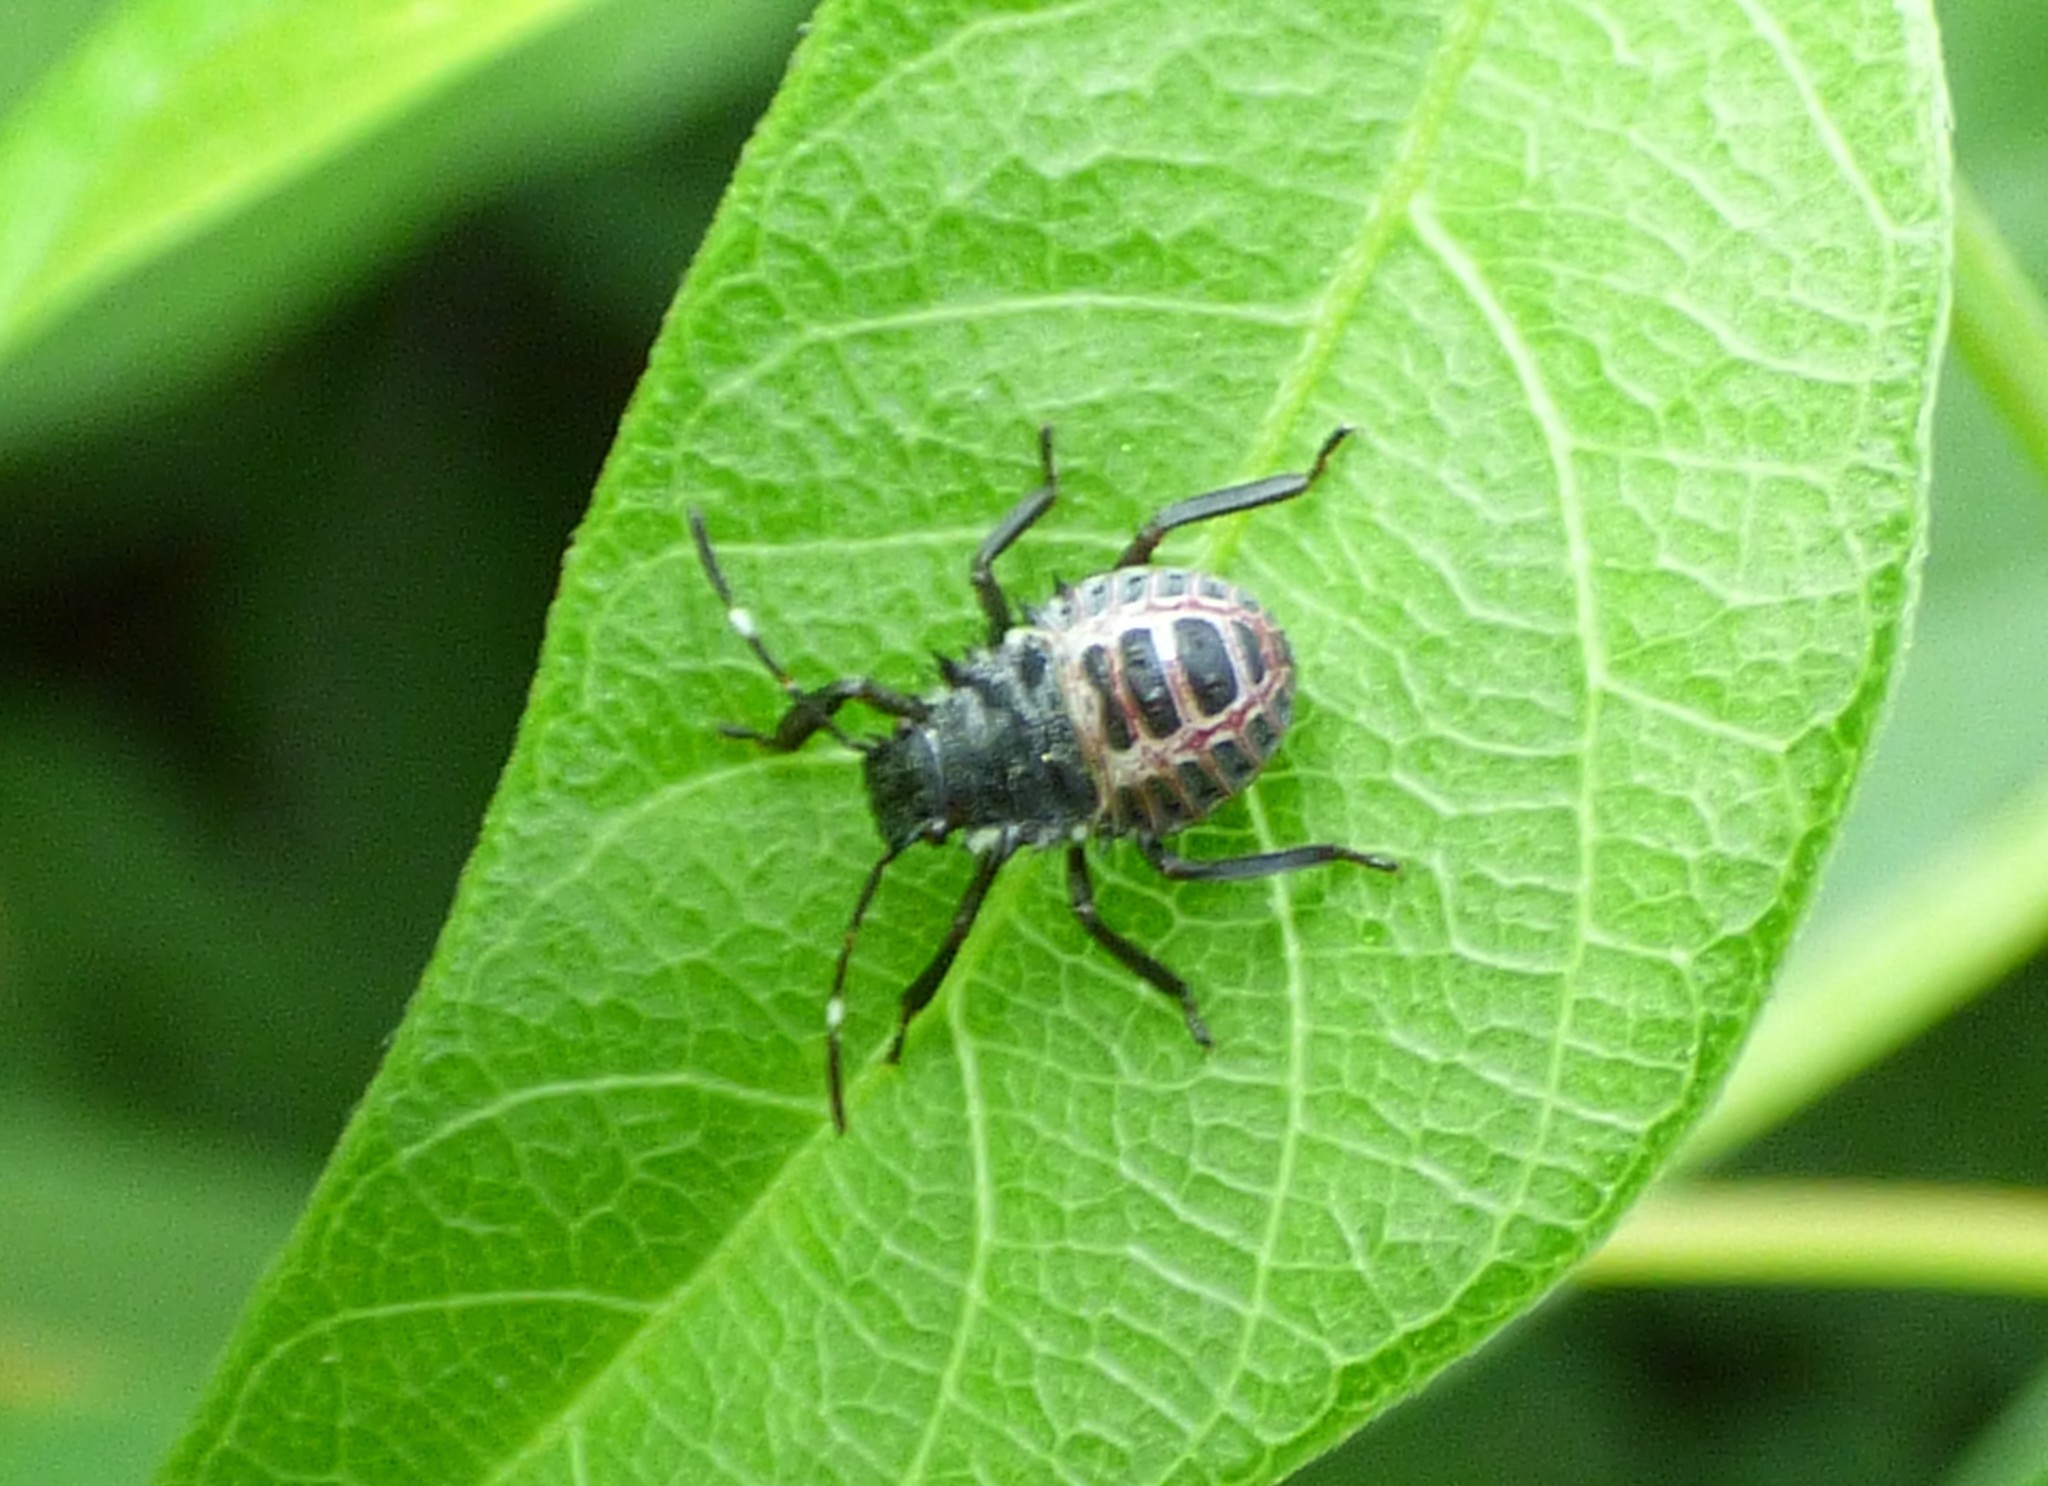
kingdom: Animalia
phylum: Arthropoda
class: Insecta
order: Hemiptera
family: Pentatomidae
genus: Halyomorpha
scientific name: Halyomorpha halys
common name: Brown marmorated stink bug
